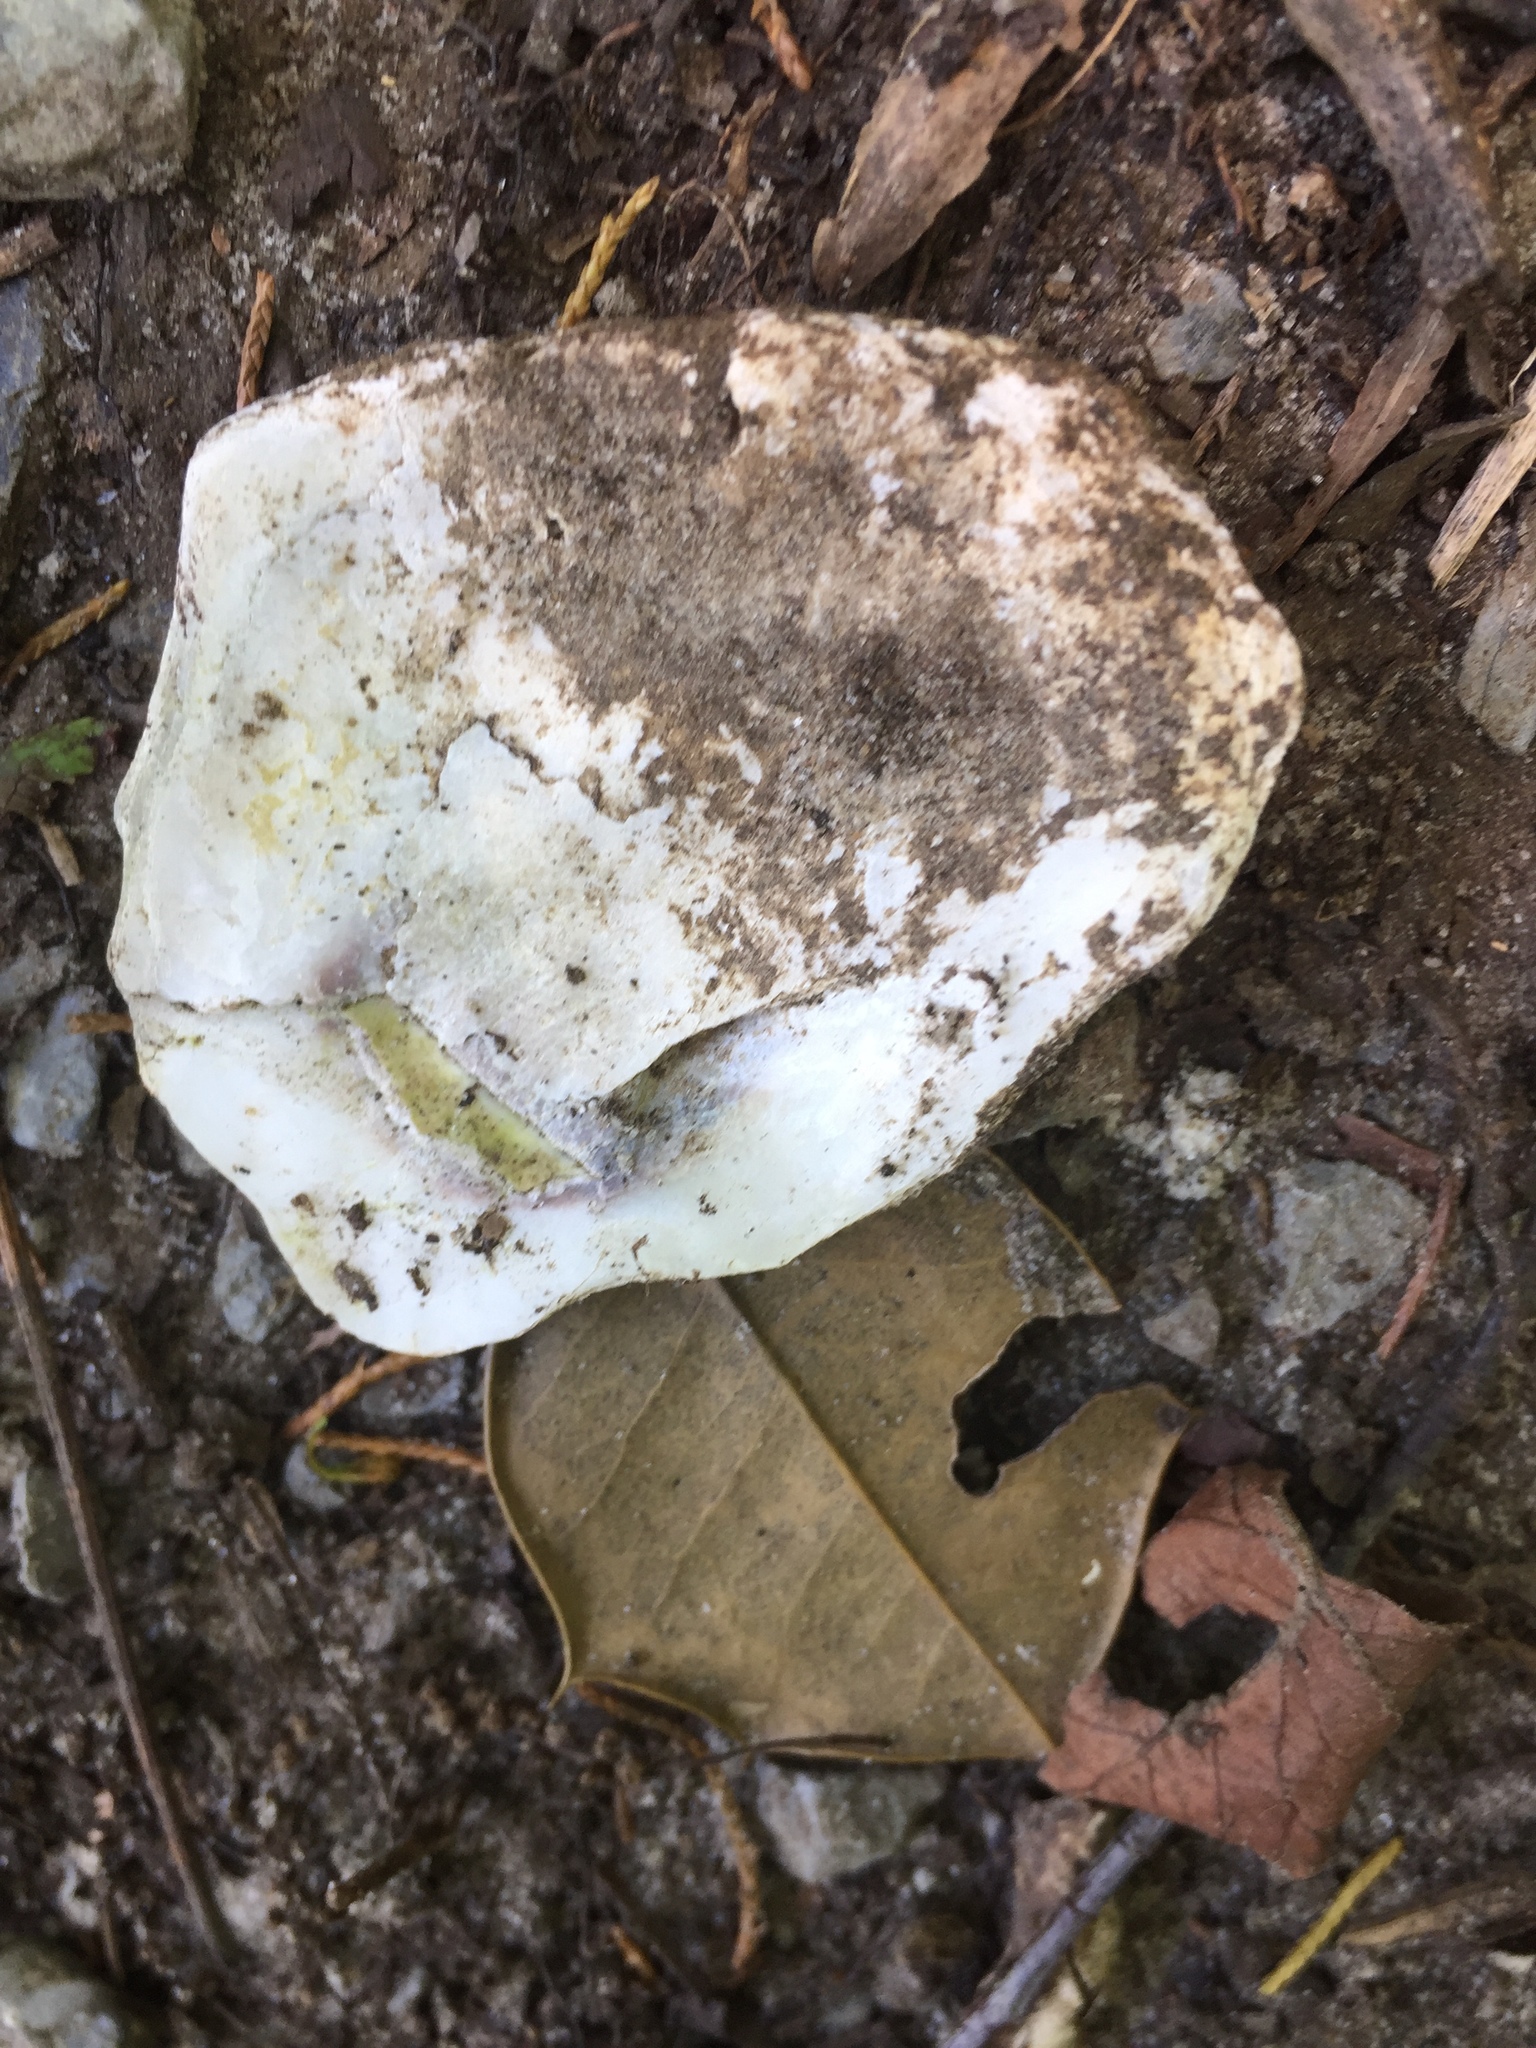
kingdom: Animalia
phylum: Mollusca
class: Bivalvia
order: Ostreida
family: Ostreidae
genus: Crassostrea
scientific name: Crassostrea virginica
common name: American oyster
